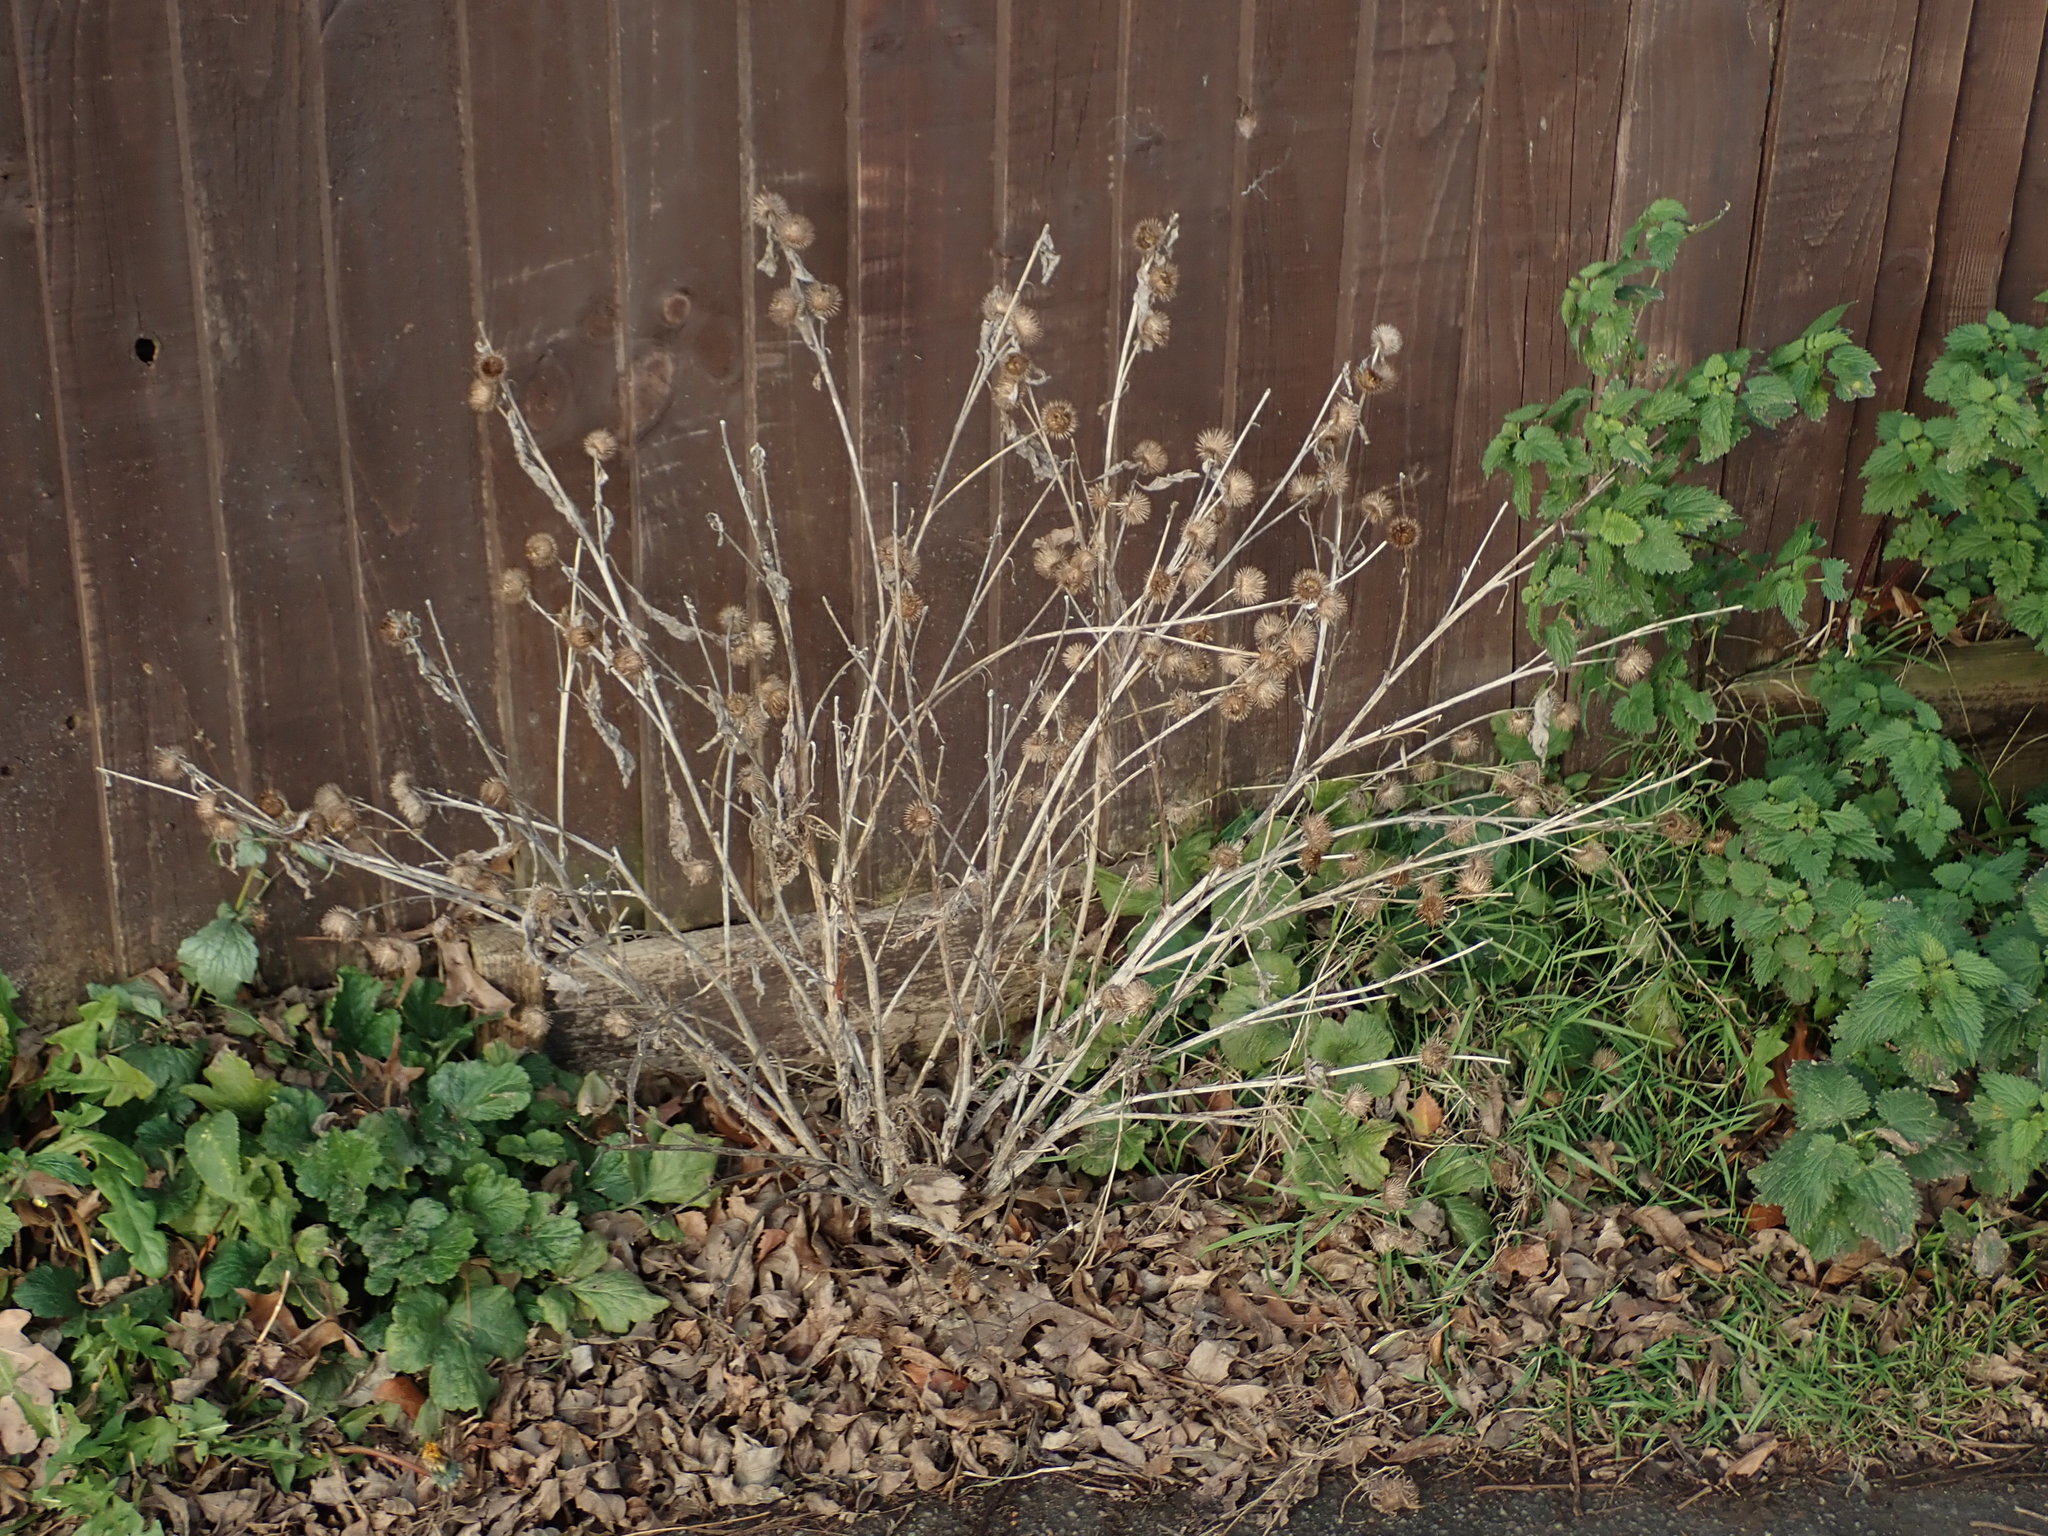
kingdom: Plantae
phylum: Tracheophyta
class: Magnoliopsida
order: Asterales
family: Asteraceae
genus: Arctium
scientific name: Arctium minus
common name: Lesser burdock
